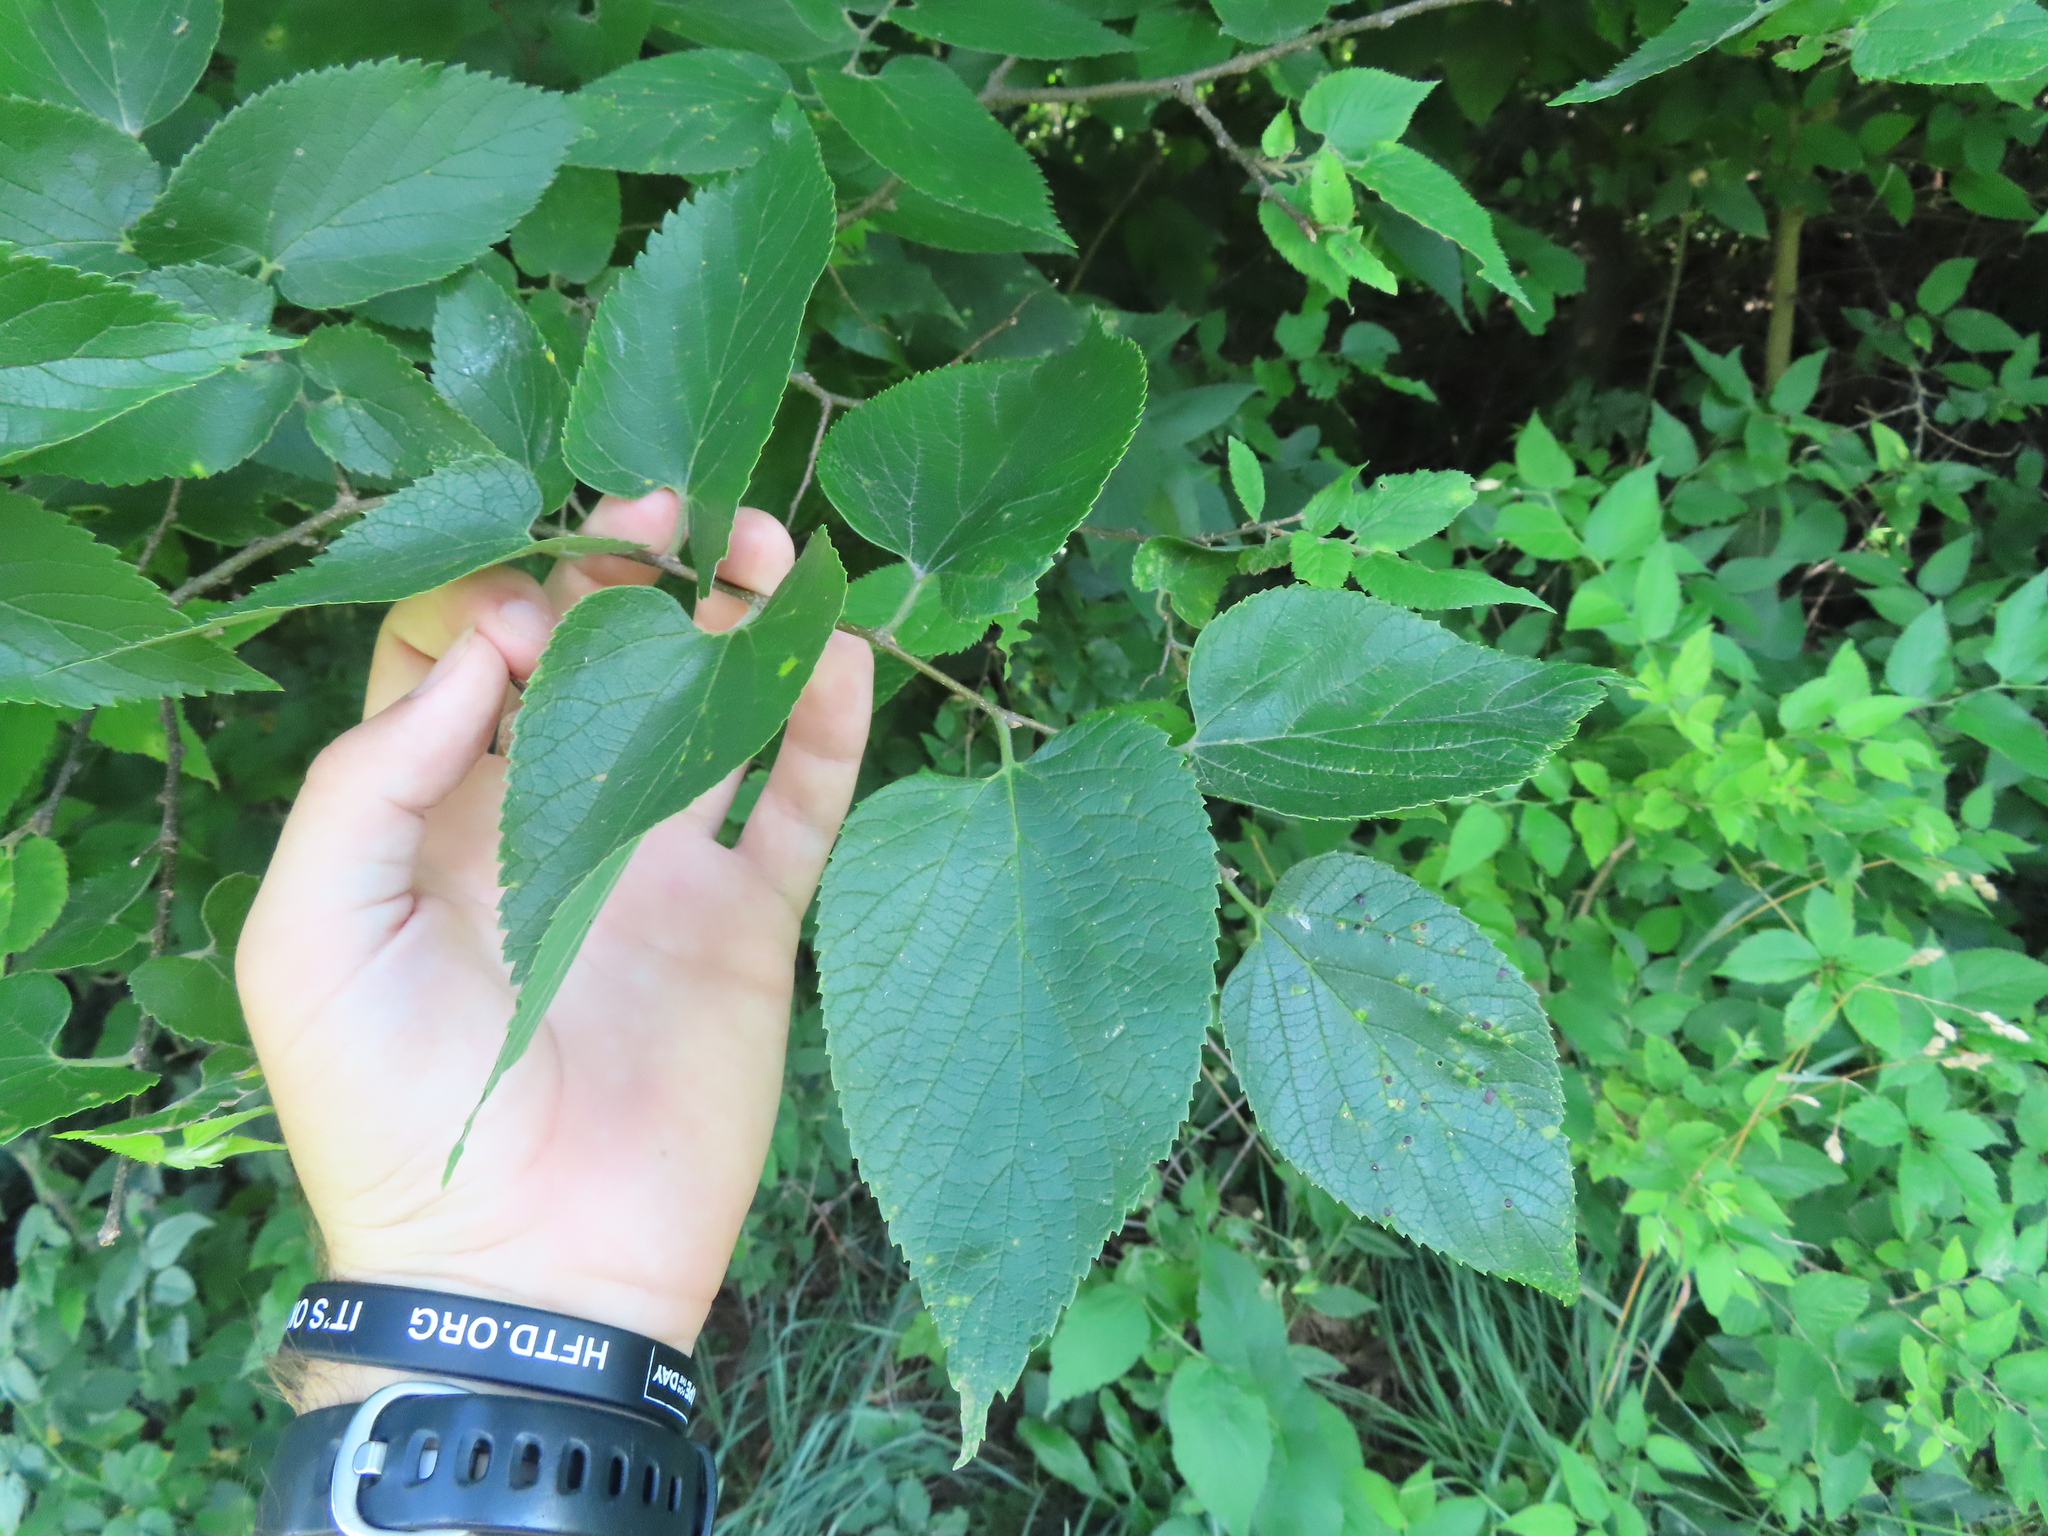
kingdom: Plantae
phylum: Tracheophyta
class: Magnoliopsida
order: Rosales
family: Cannabaceae
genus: Celtis
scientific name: Celtis occidentalis
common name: Common hackberry
